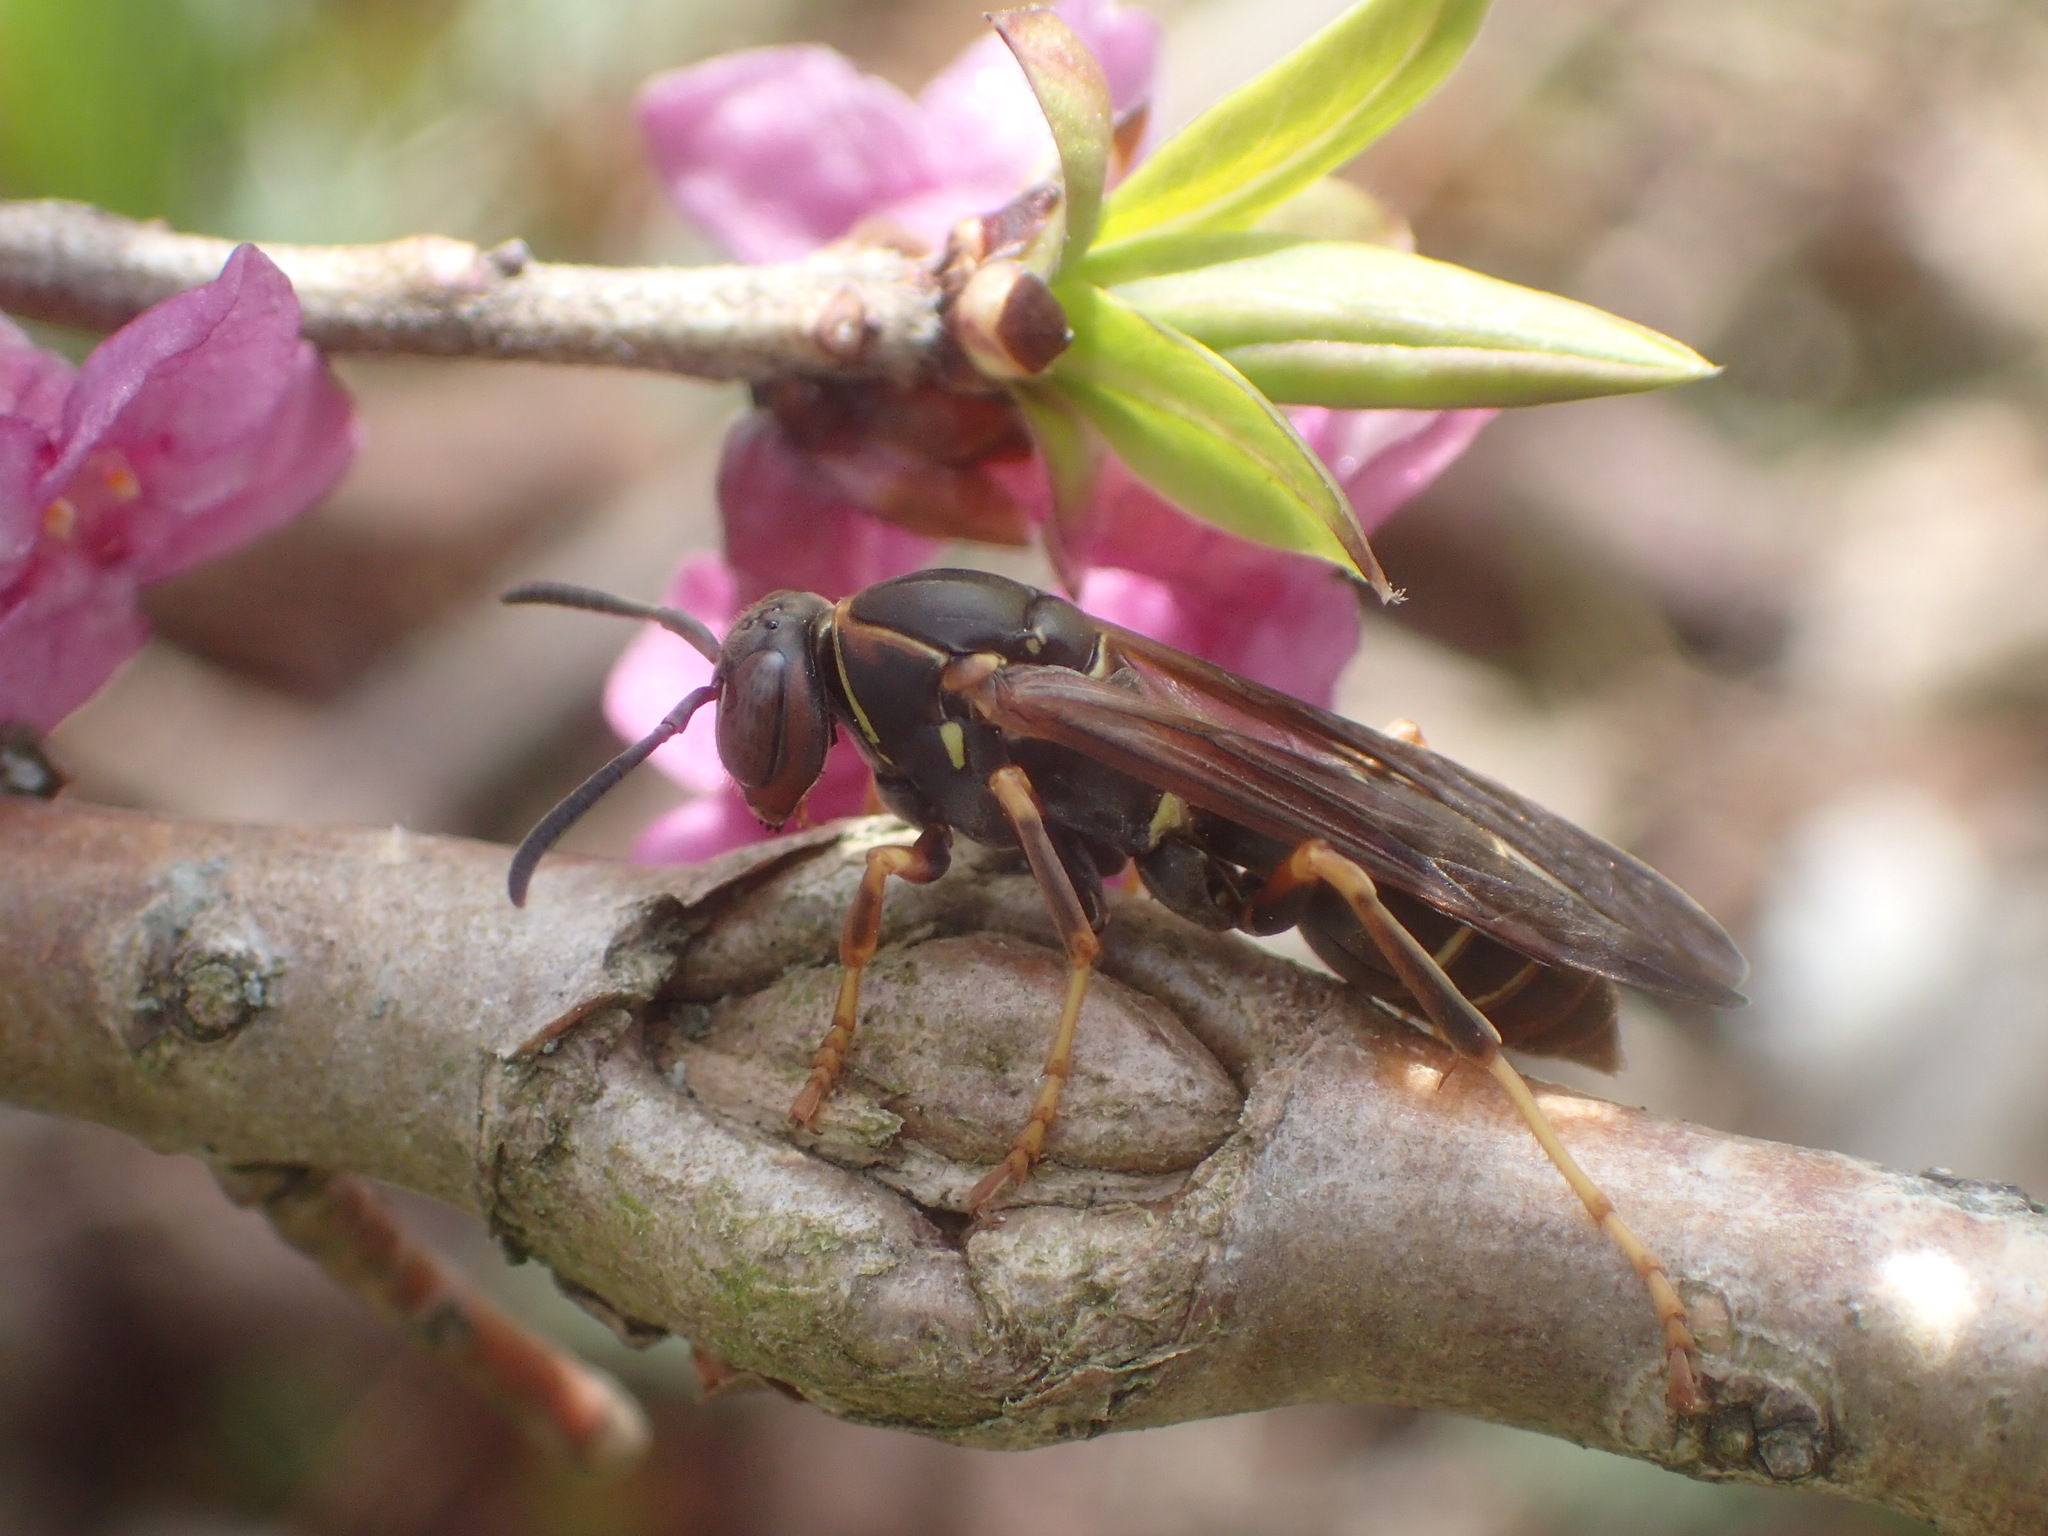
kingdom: Animalia
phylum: Arthropoda
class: Insecta
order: Hymenoptera
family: Eumenidae
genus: Polistes
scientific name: Polistes fuscatus
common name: Dark paper wasp
